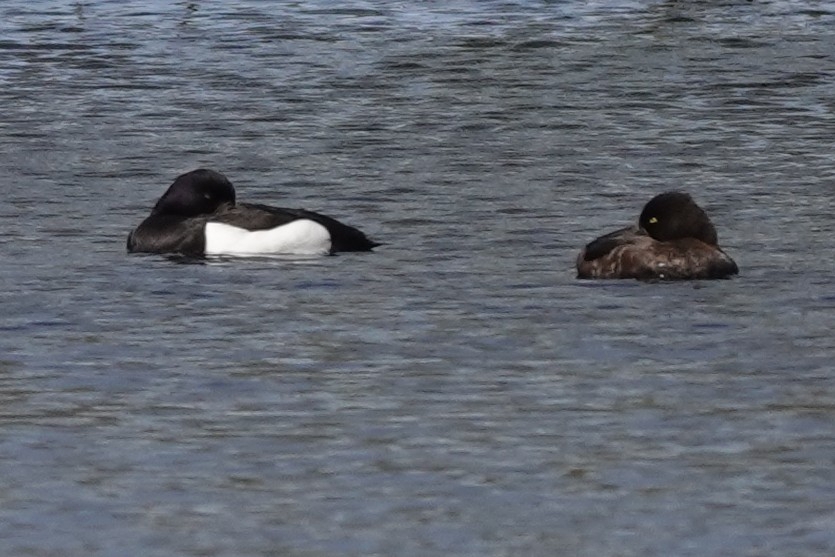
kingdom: Animalia
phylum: Chordata
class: Aves
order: Anseriformes
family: Anatidae
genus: Aythya
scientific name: Aythya fuligula
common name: Tufted duck
